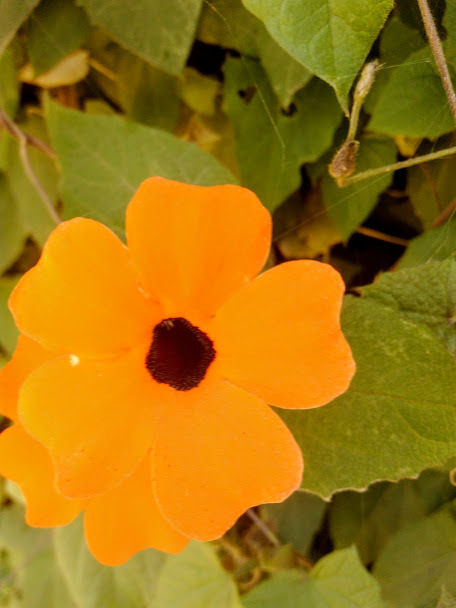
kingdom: Plantae
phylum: Tracheophyta
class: Magnoliopsida
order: Lamiales
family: Acanthaceae
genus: Thunbergia
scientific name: Thunbergia alata
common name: Blackeyed susan vine
